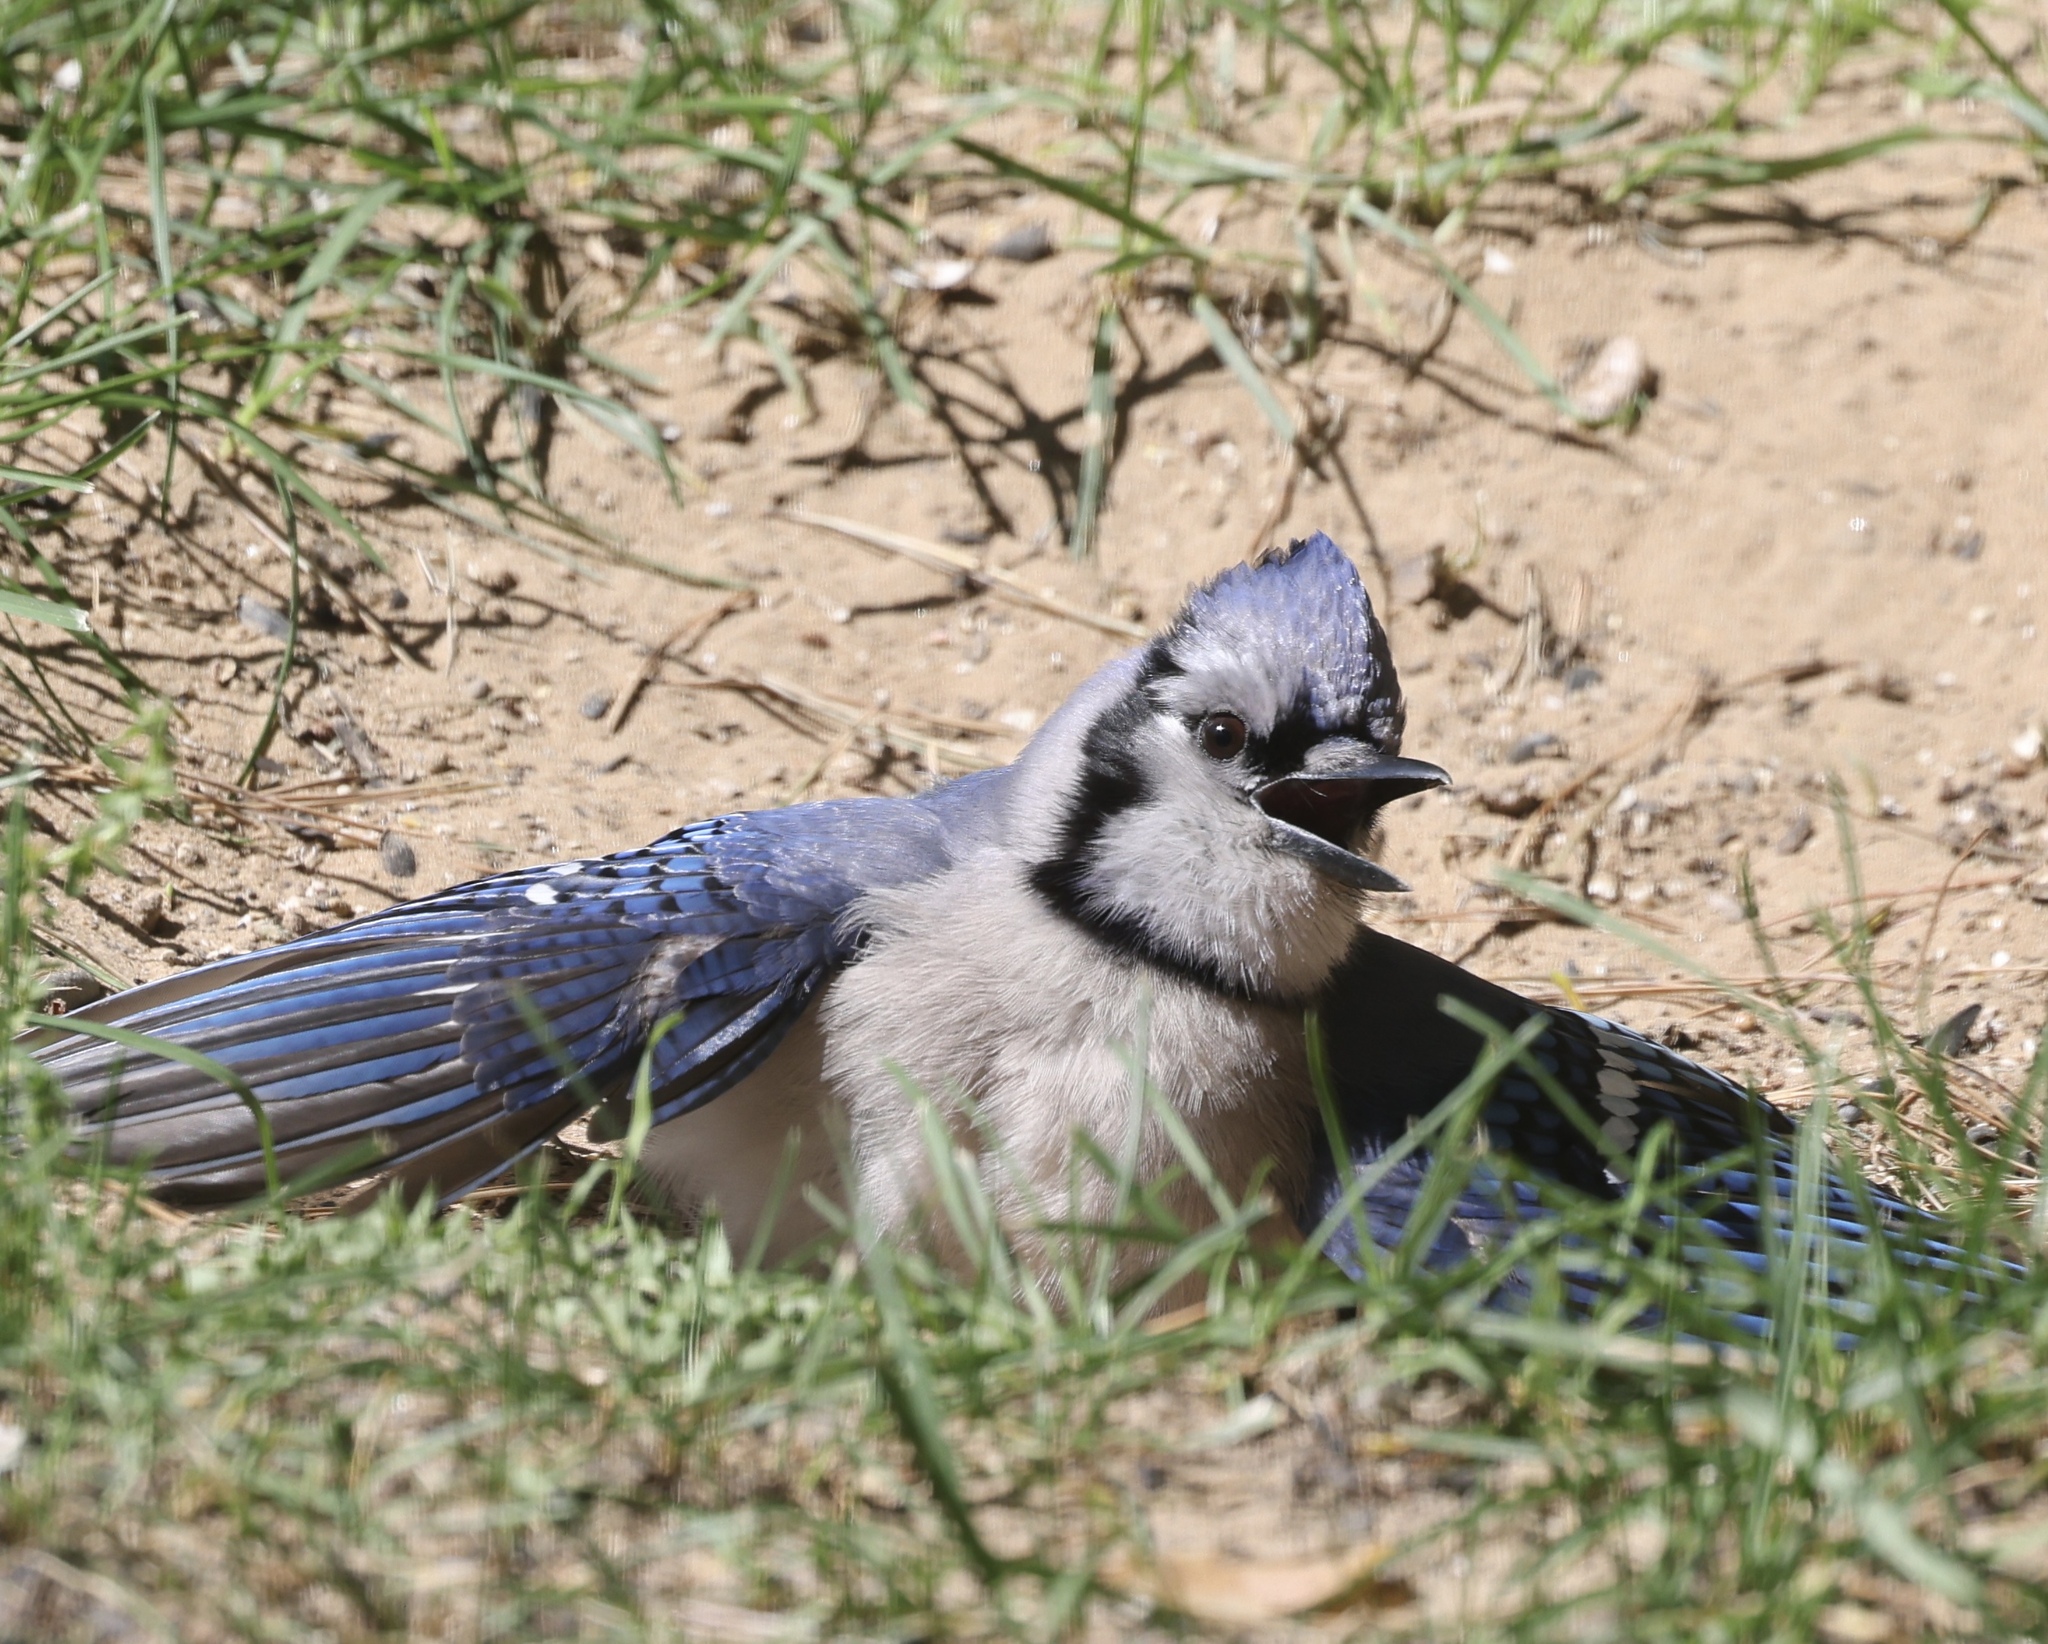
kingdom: Animalia
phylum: Chordata
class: Aves
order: Passeriformes
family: Corvidae
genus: Cyanocitta
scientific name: Cyanocitta cristata
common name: Blue jay
